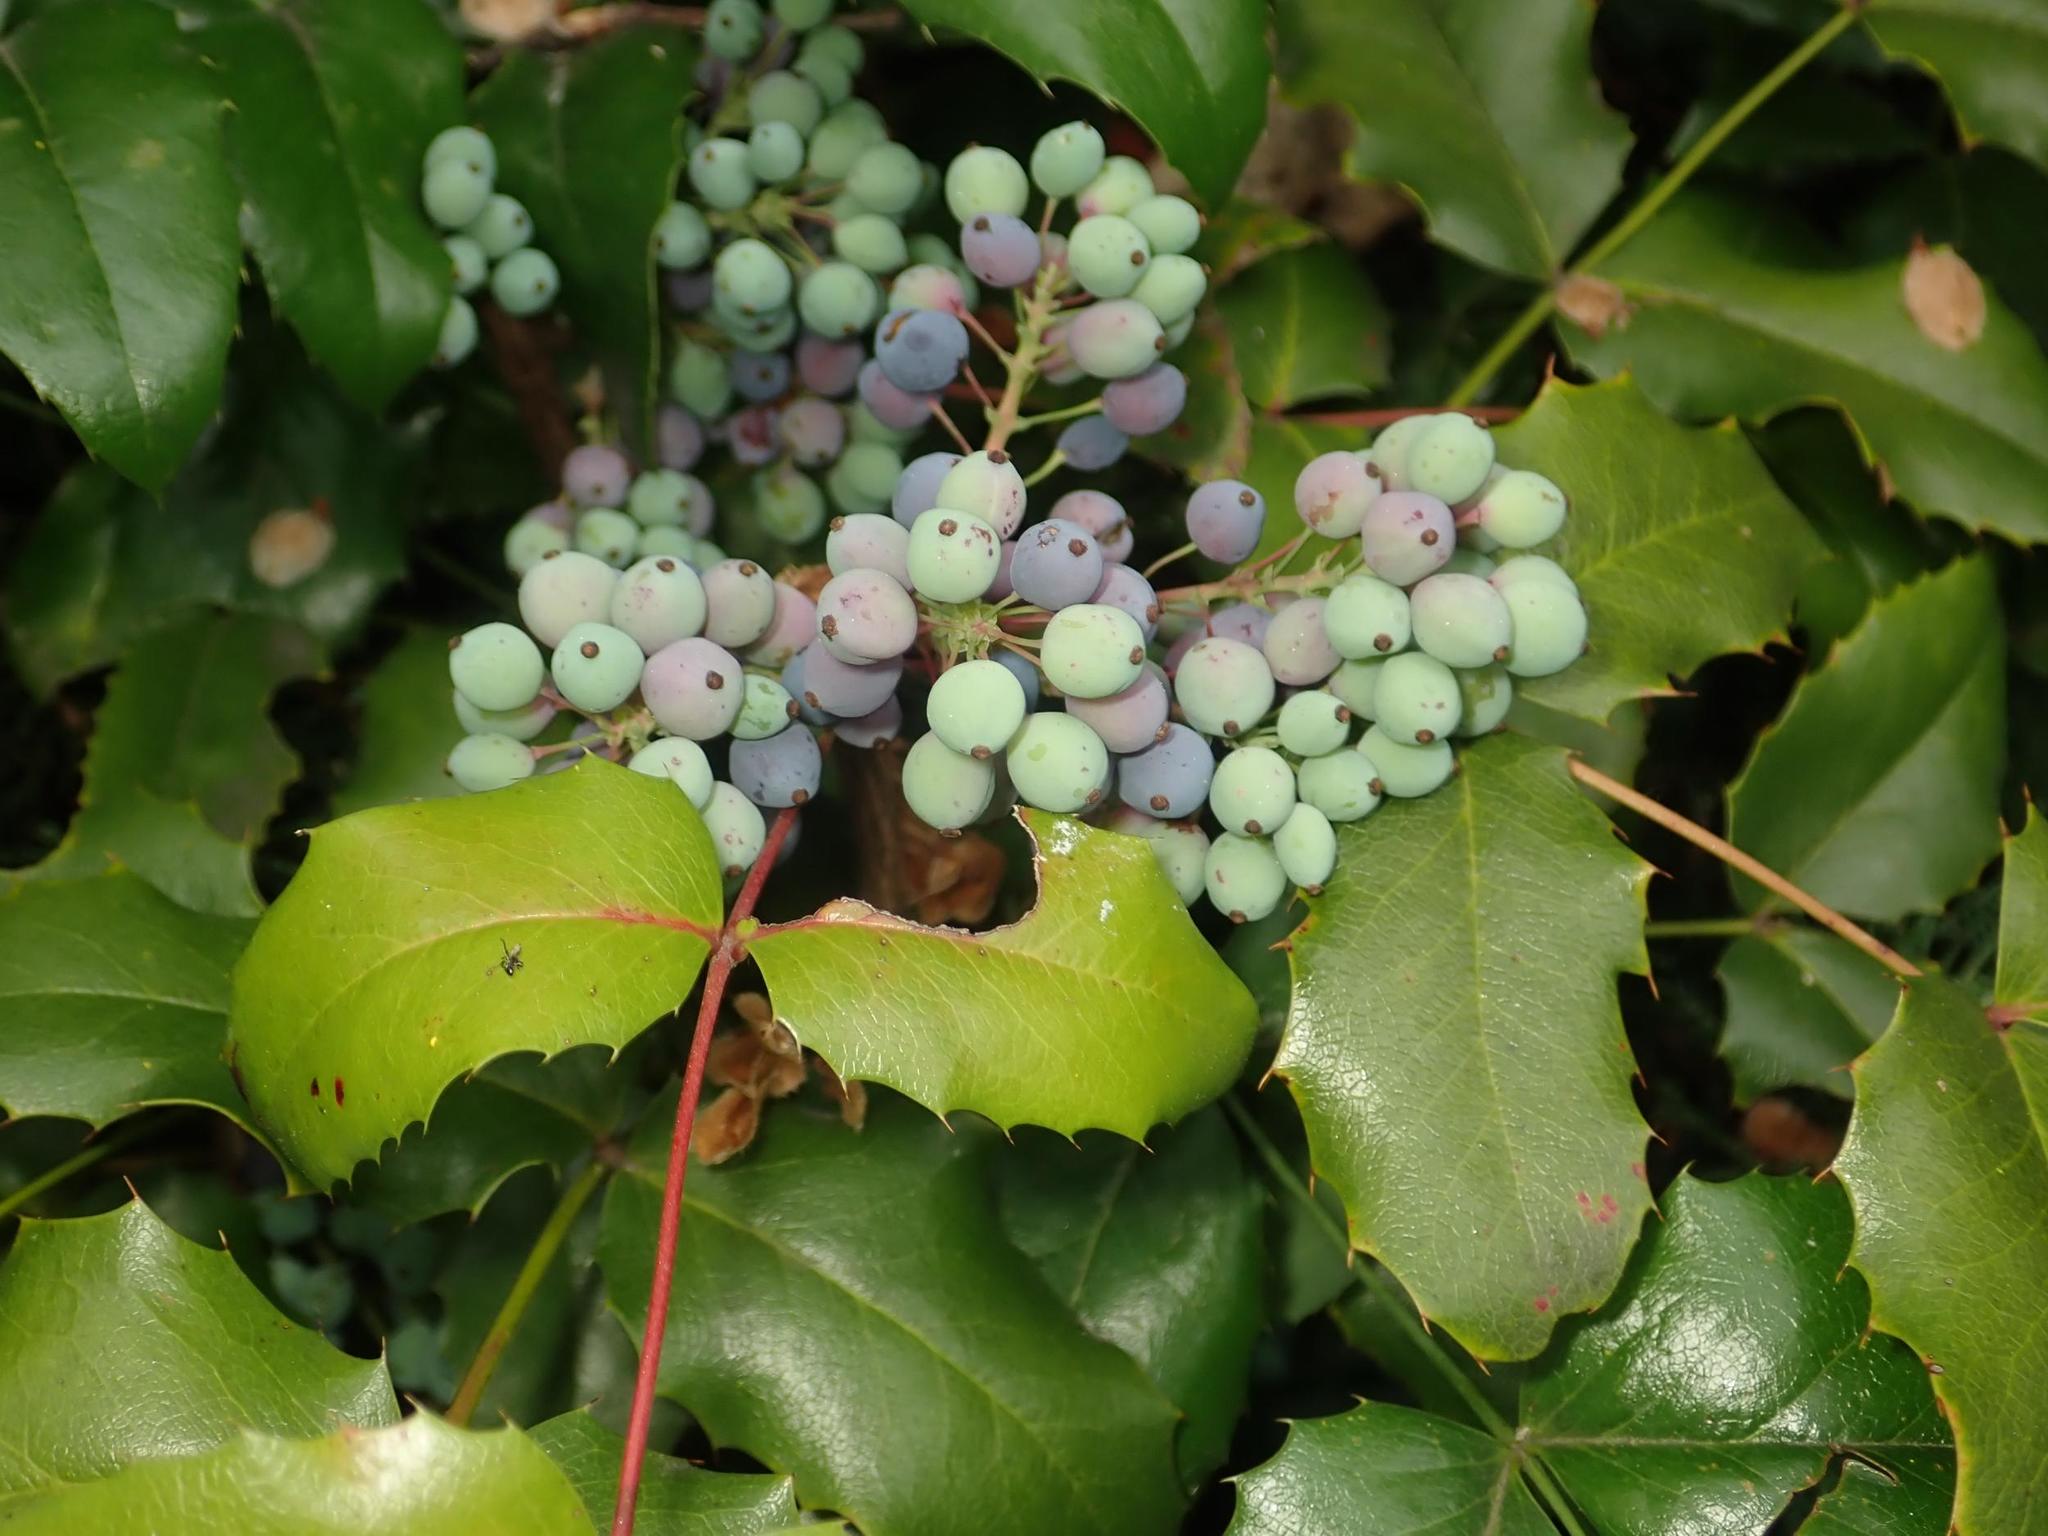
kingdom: Plantae
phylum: Tracheophyta
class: Magnoliopsida
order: Ranunculales
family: Berberidaceae
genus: Mahonia
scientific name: Mahonia aquifolium
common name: Oregon-grape
